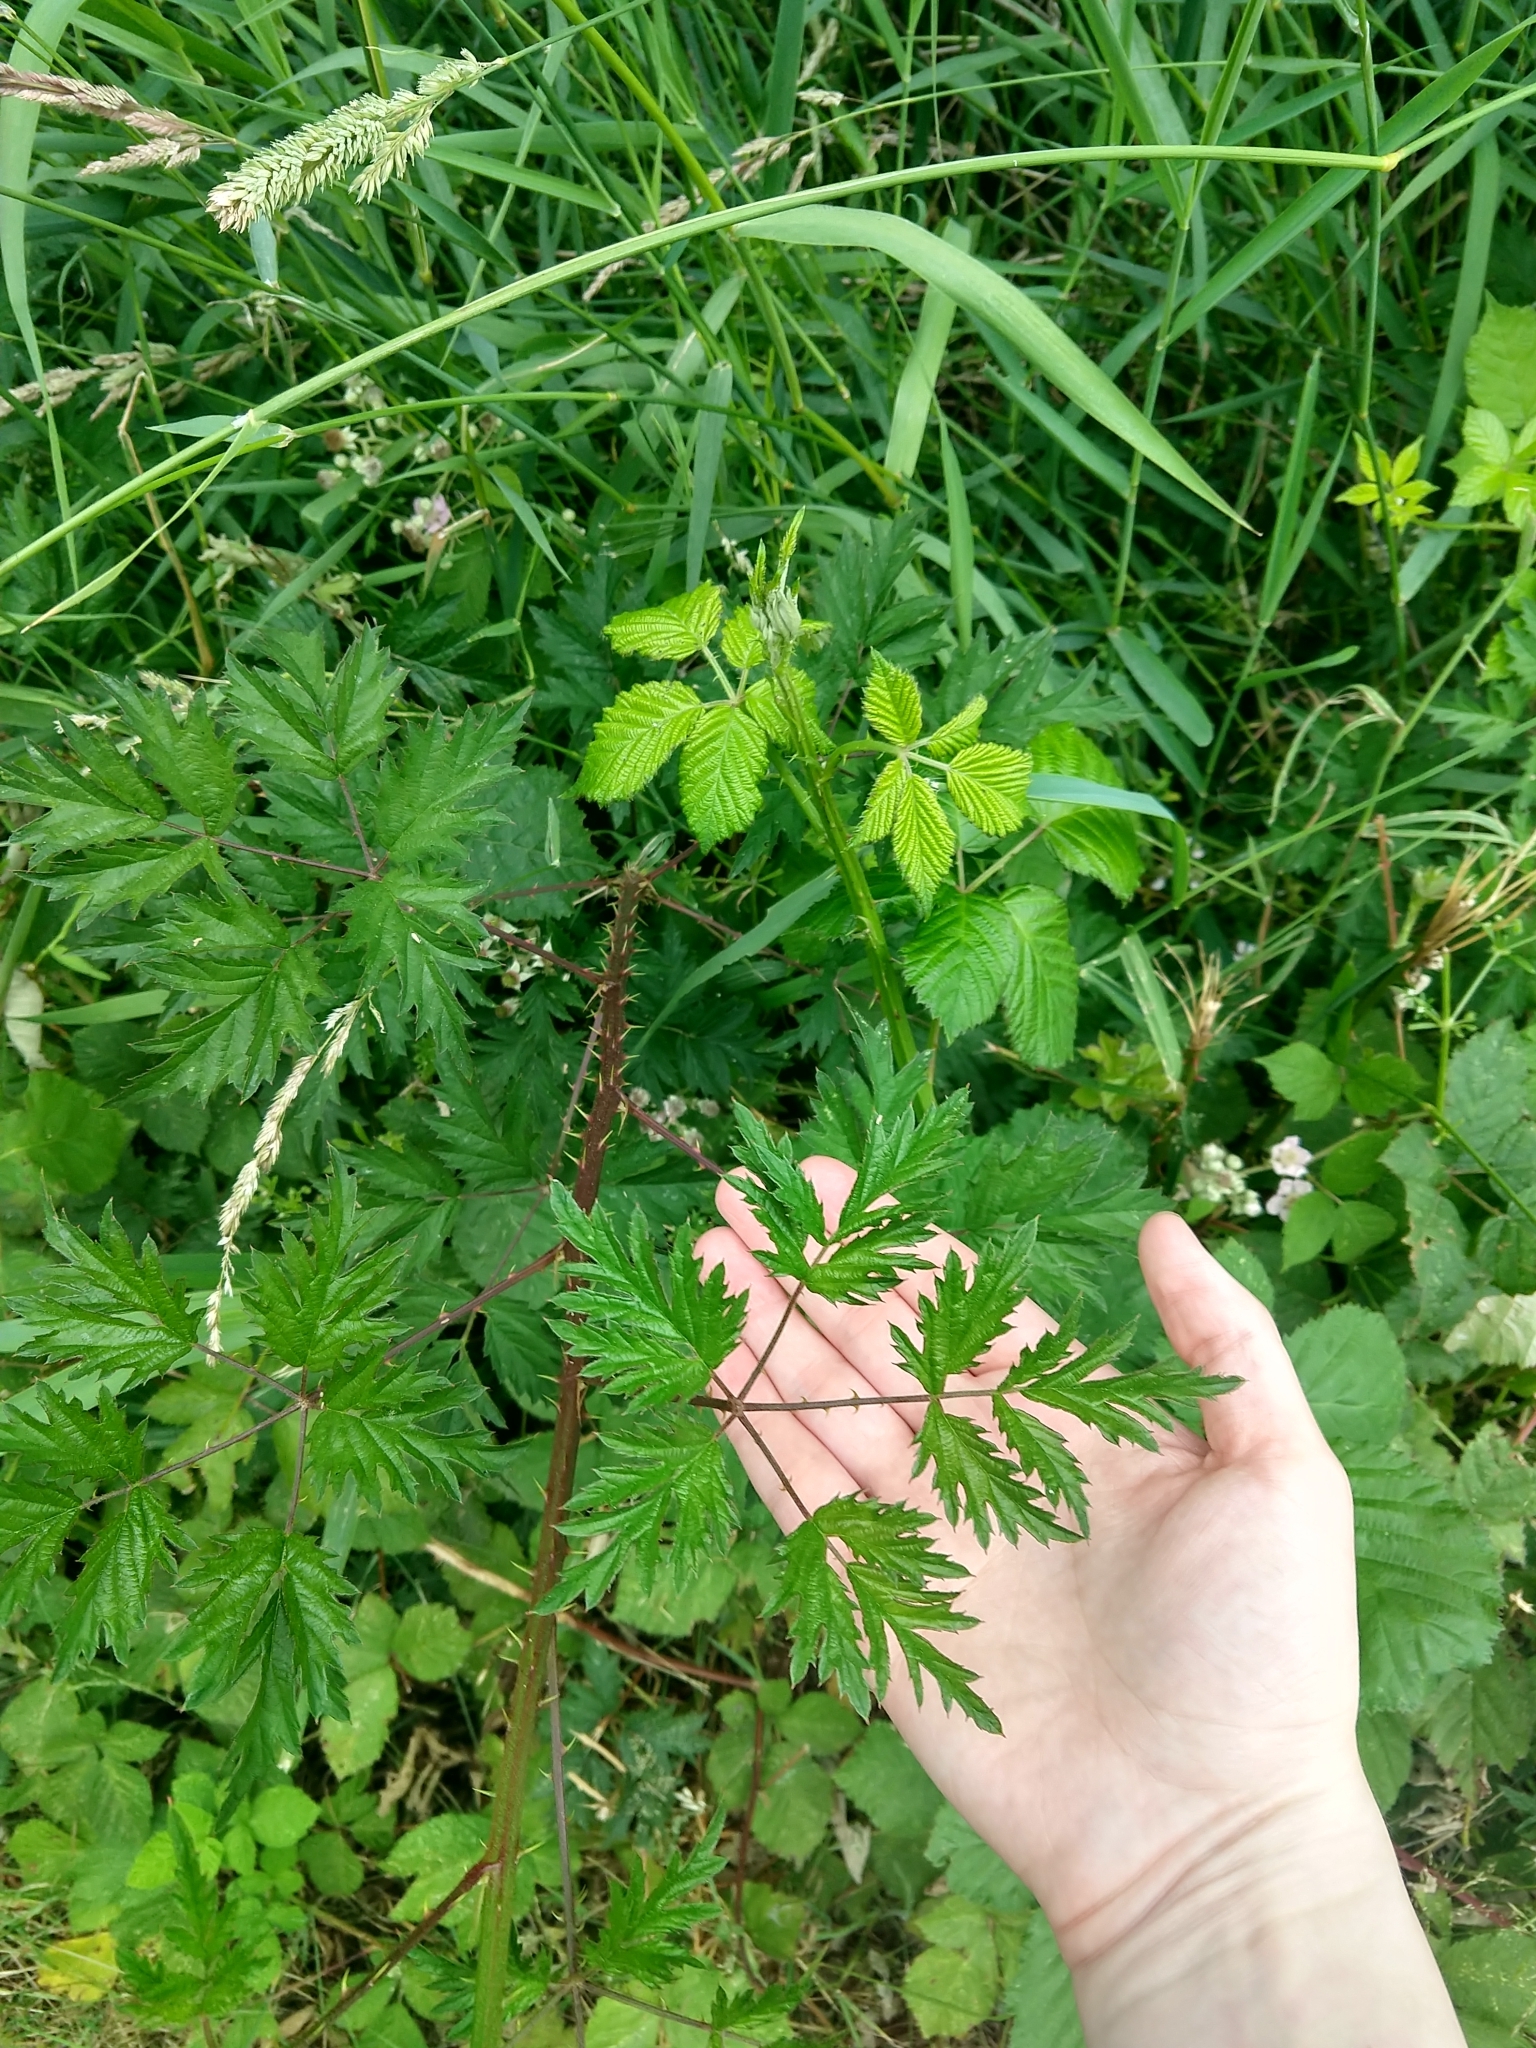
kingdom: Plantae
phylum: Tracheophyta
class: Magnoliopsida
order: Rosales
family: Rosaceae
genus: Rubus
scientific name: Rubus laciniatus
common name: Evergreen blackberry
